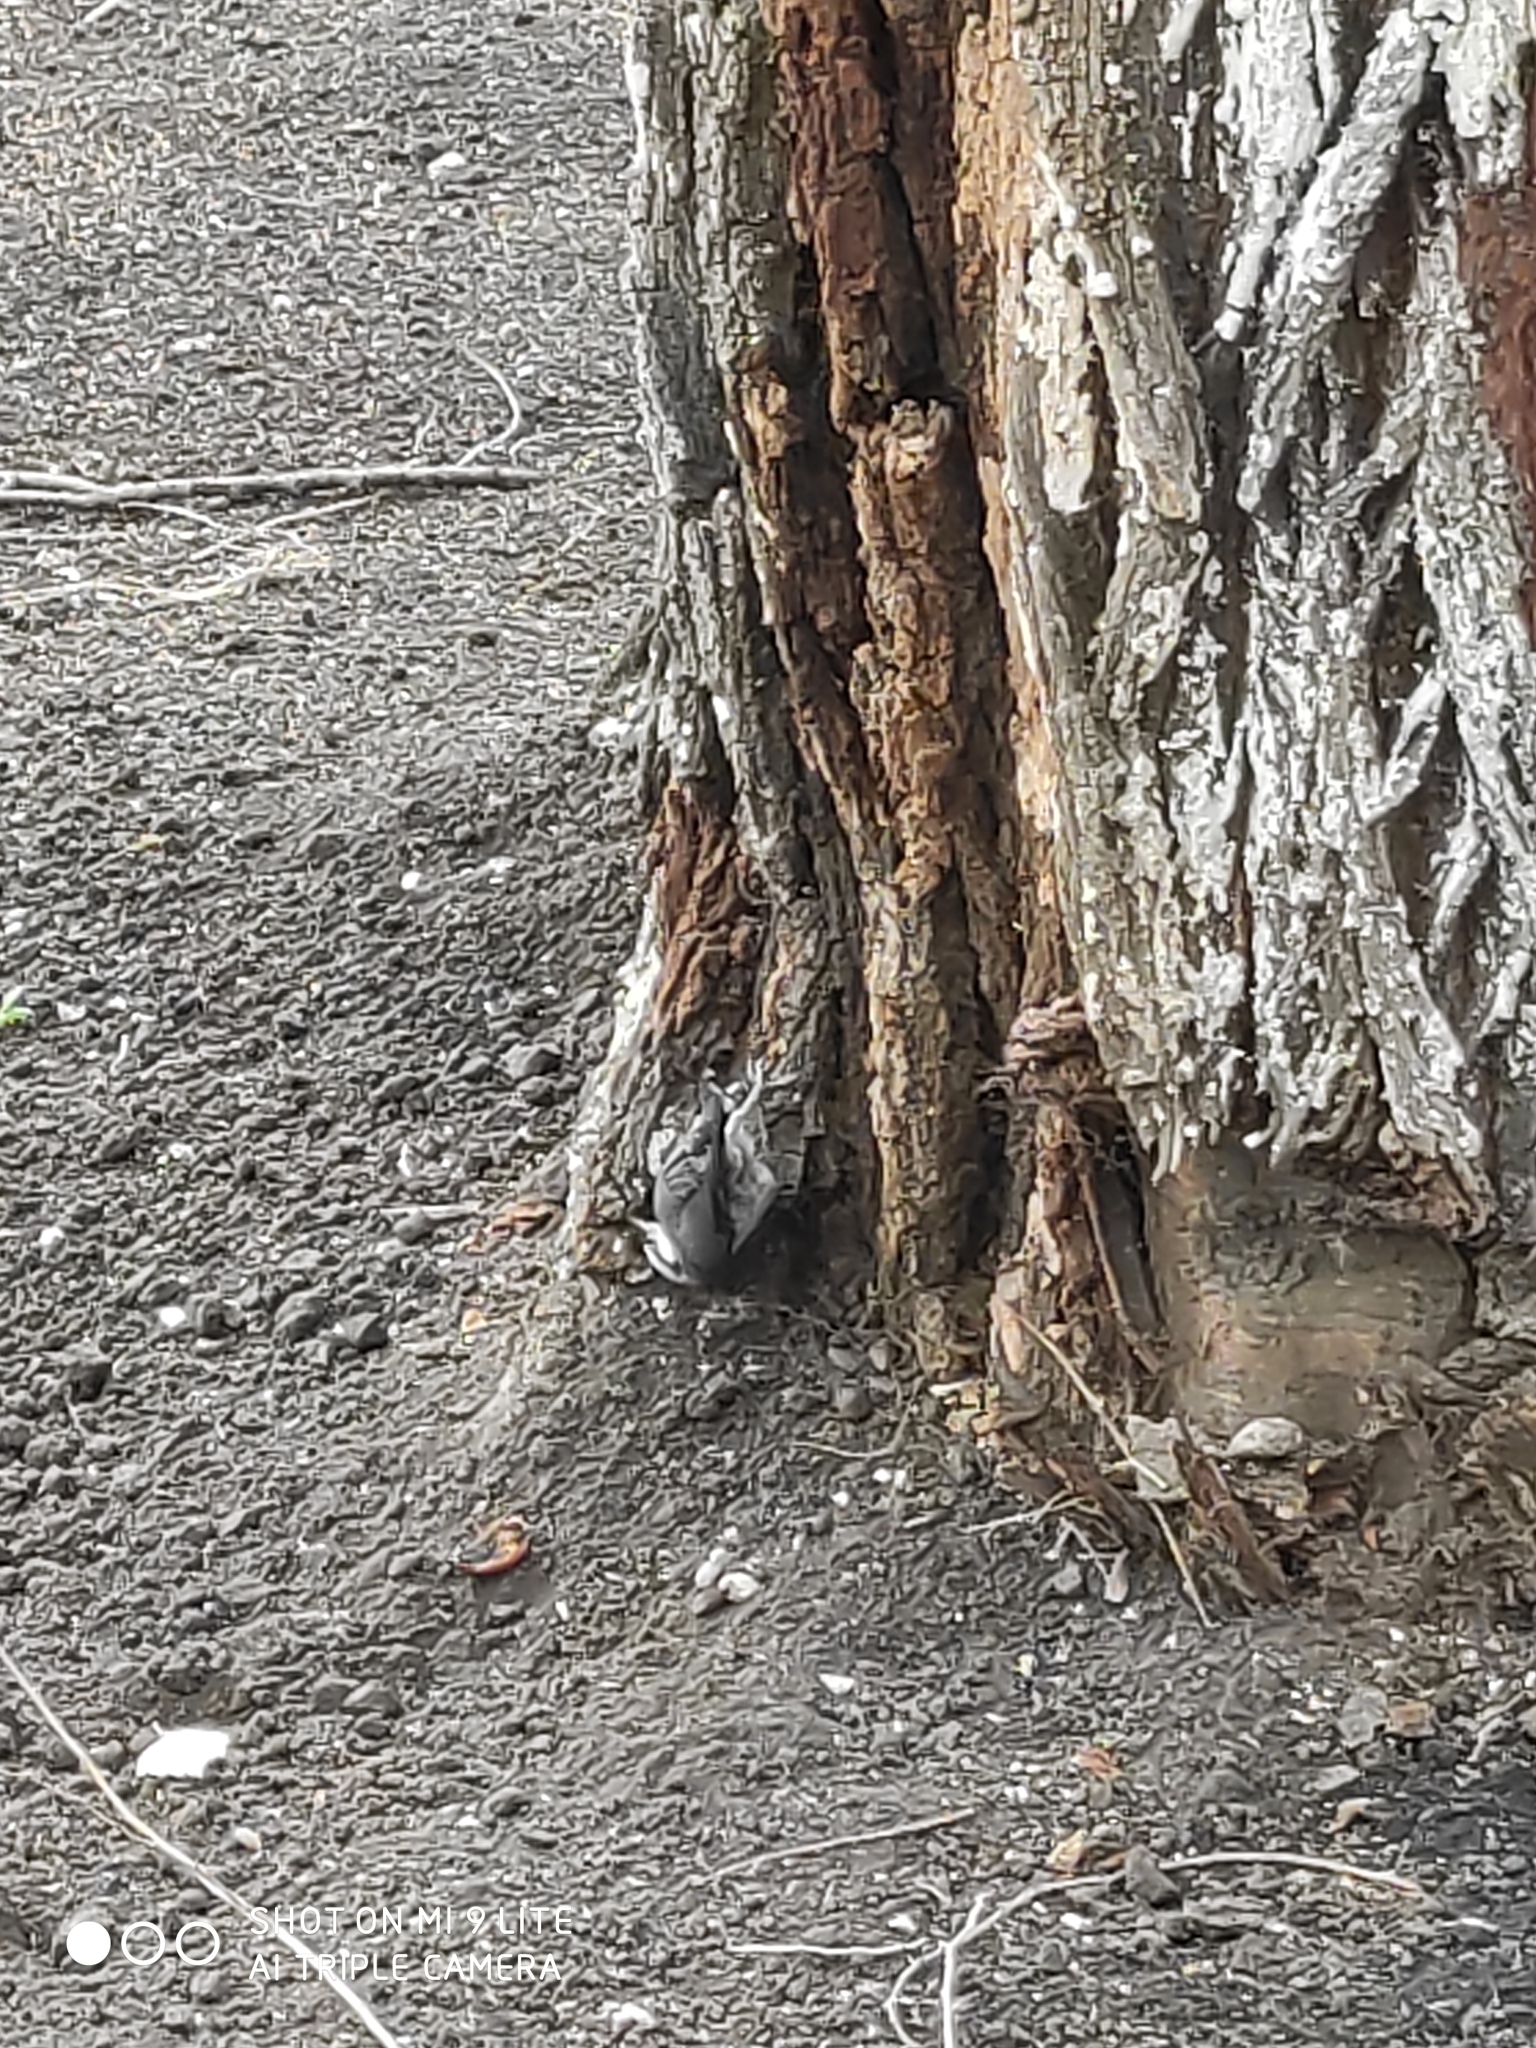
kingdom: Animalia
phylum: Chordata
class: Aves
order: Passeriformes
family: Sittidae
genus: Sitta
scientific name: Sitta europaea
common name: Eurasian nuthatch
